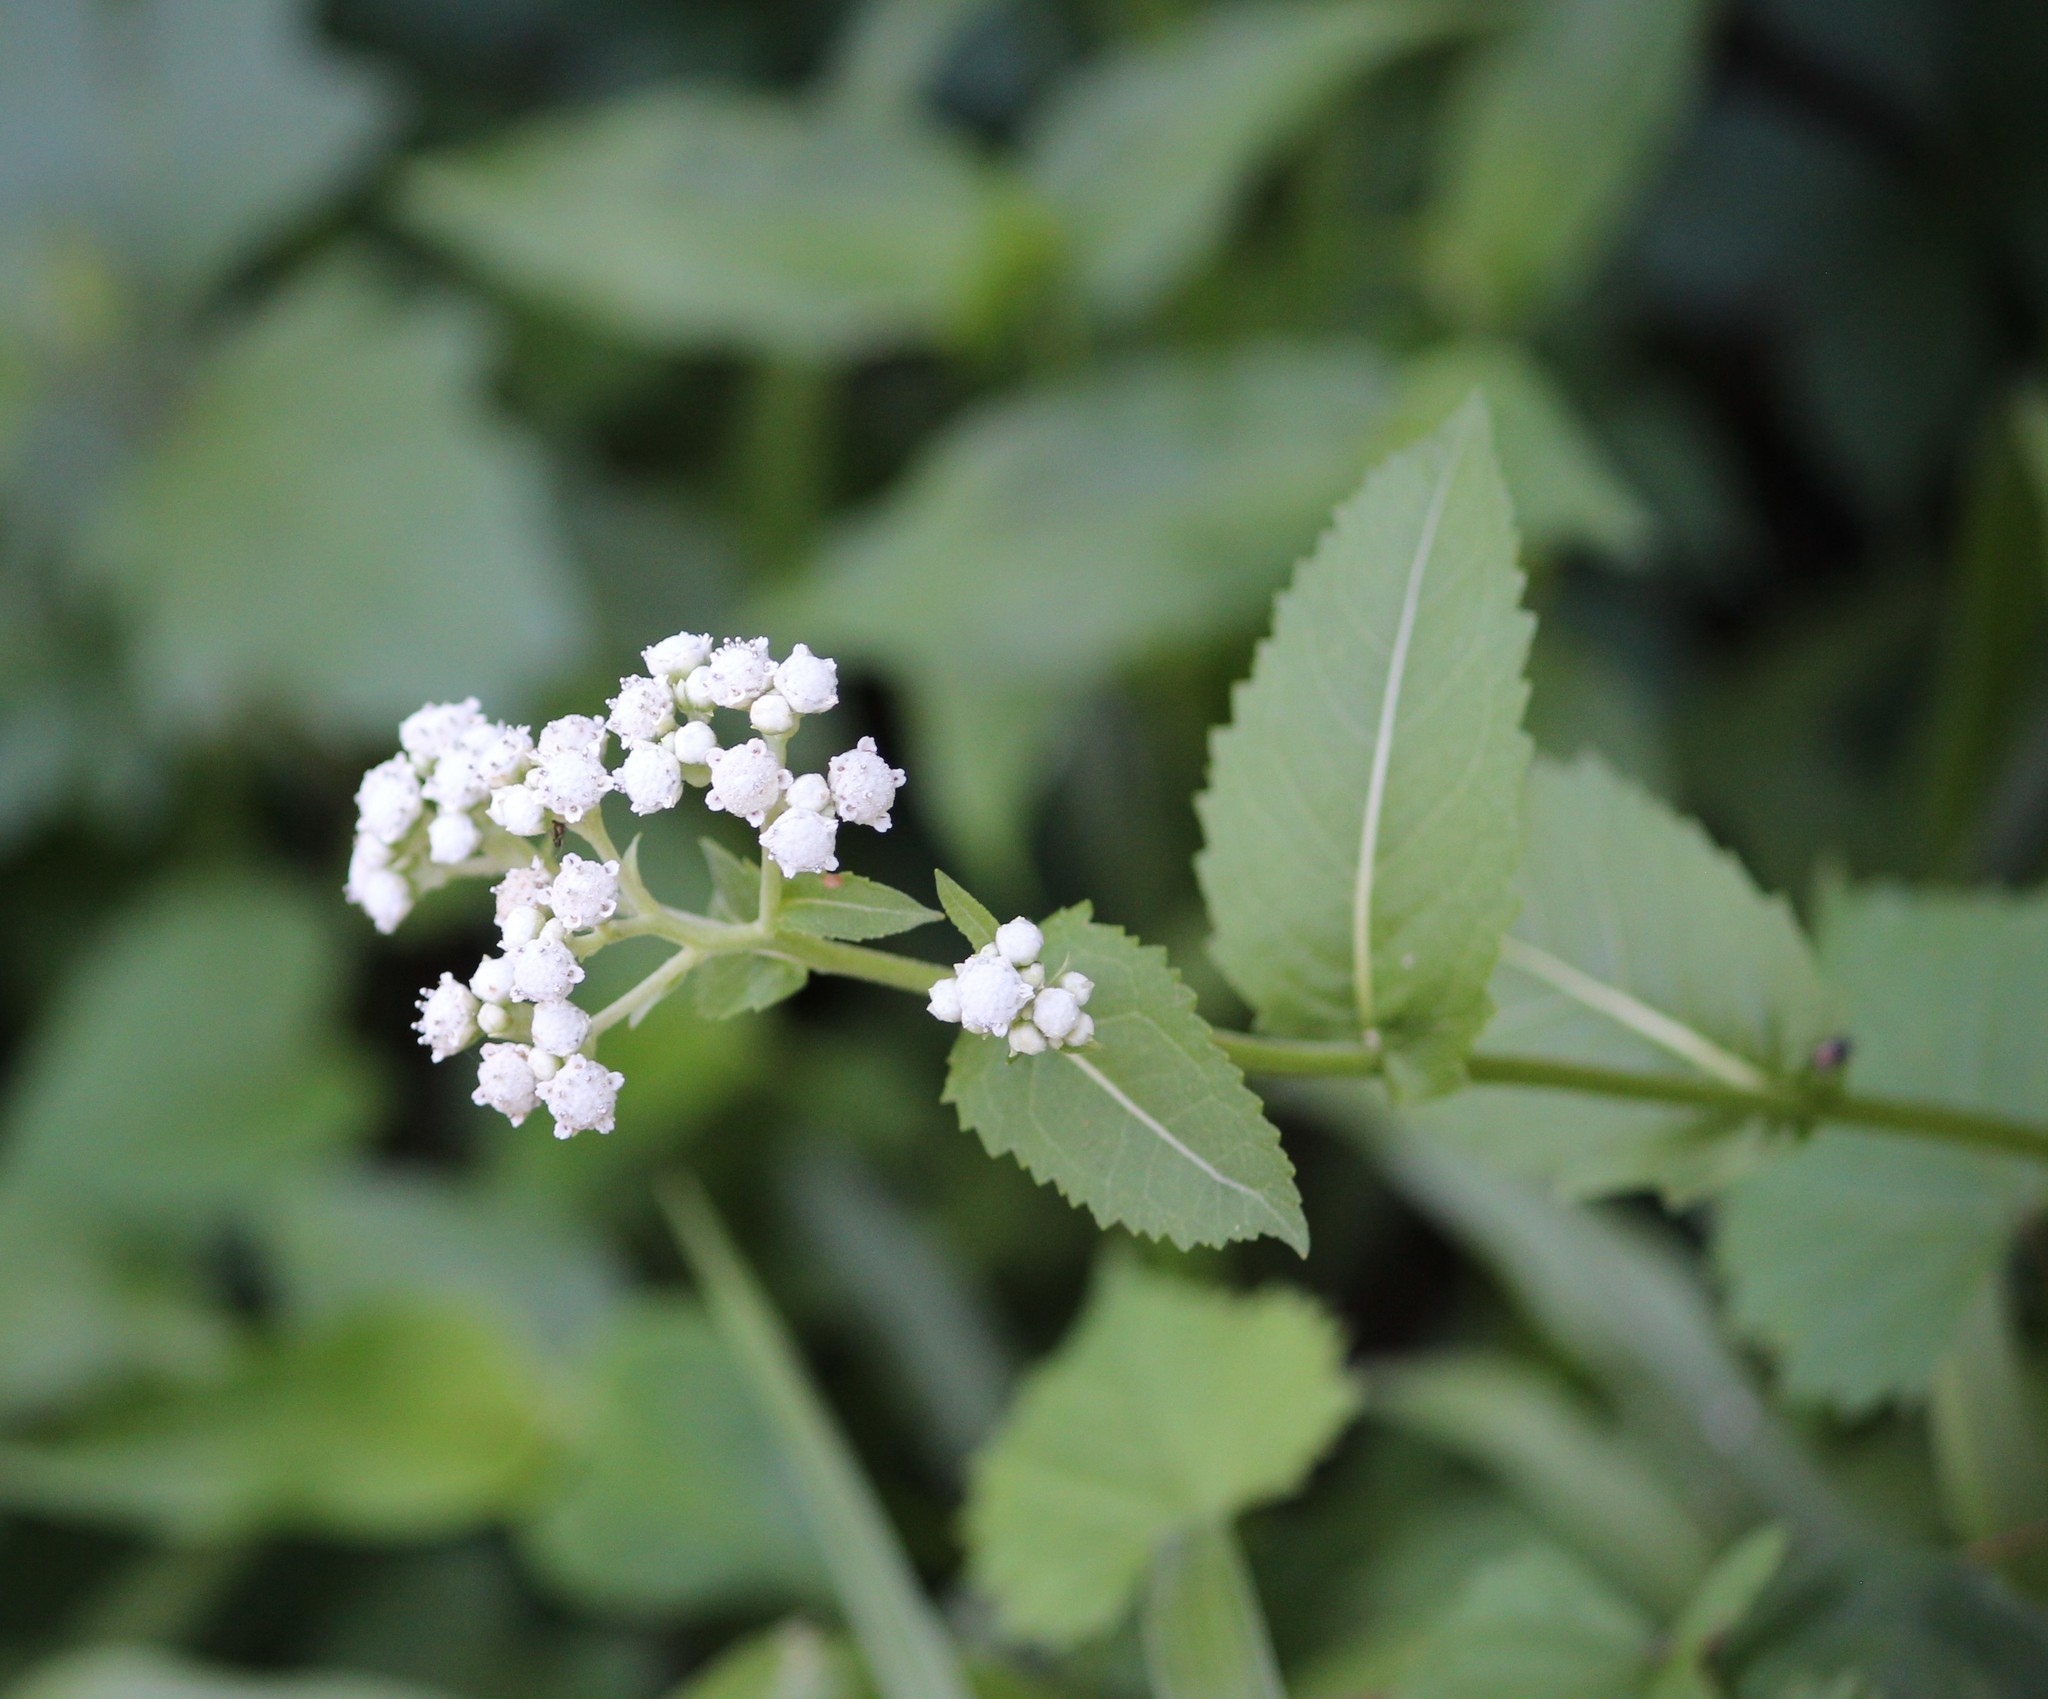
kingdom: Plantae
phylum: Tracheophyta
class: Magnoliopsida
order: Asterales
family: Asteraceae
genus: Parthenium
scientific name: Parthenium integrifolium
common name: American feverfew
